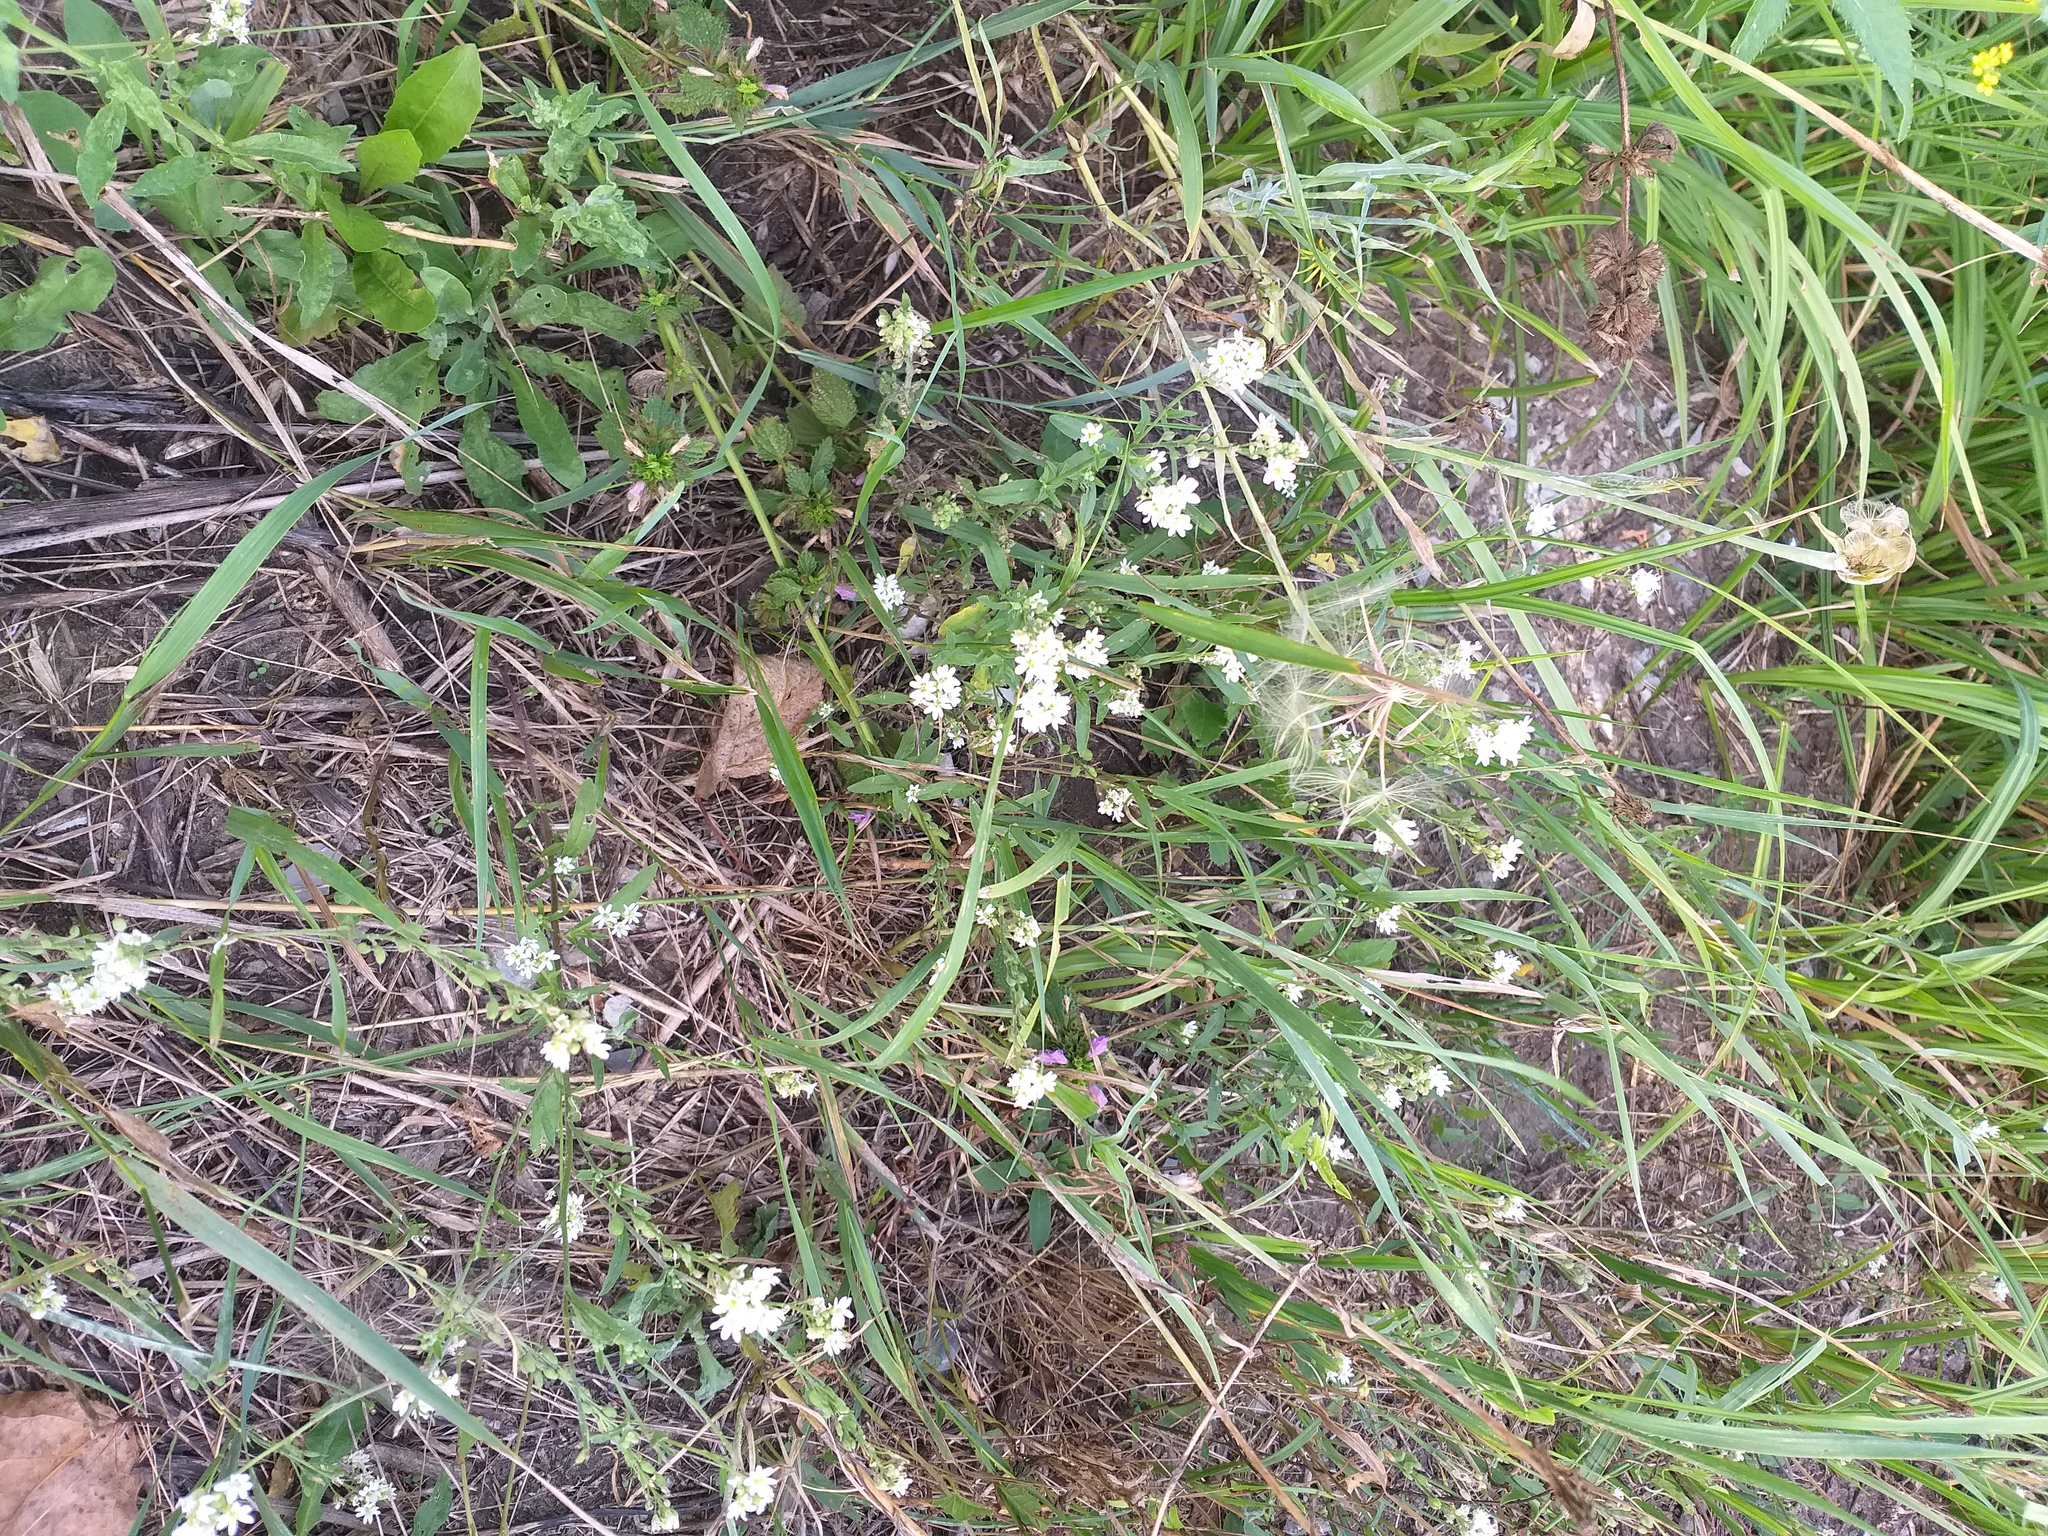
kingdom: Plantae
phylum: Tracheophyta
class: Magnoliopsida
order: Brassicales
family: Brassicaceae
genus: Berteroa
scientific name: Berteroa incana
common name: Hoary alison
